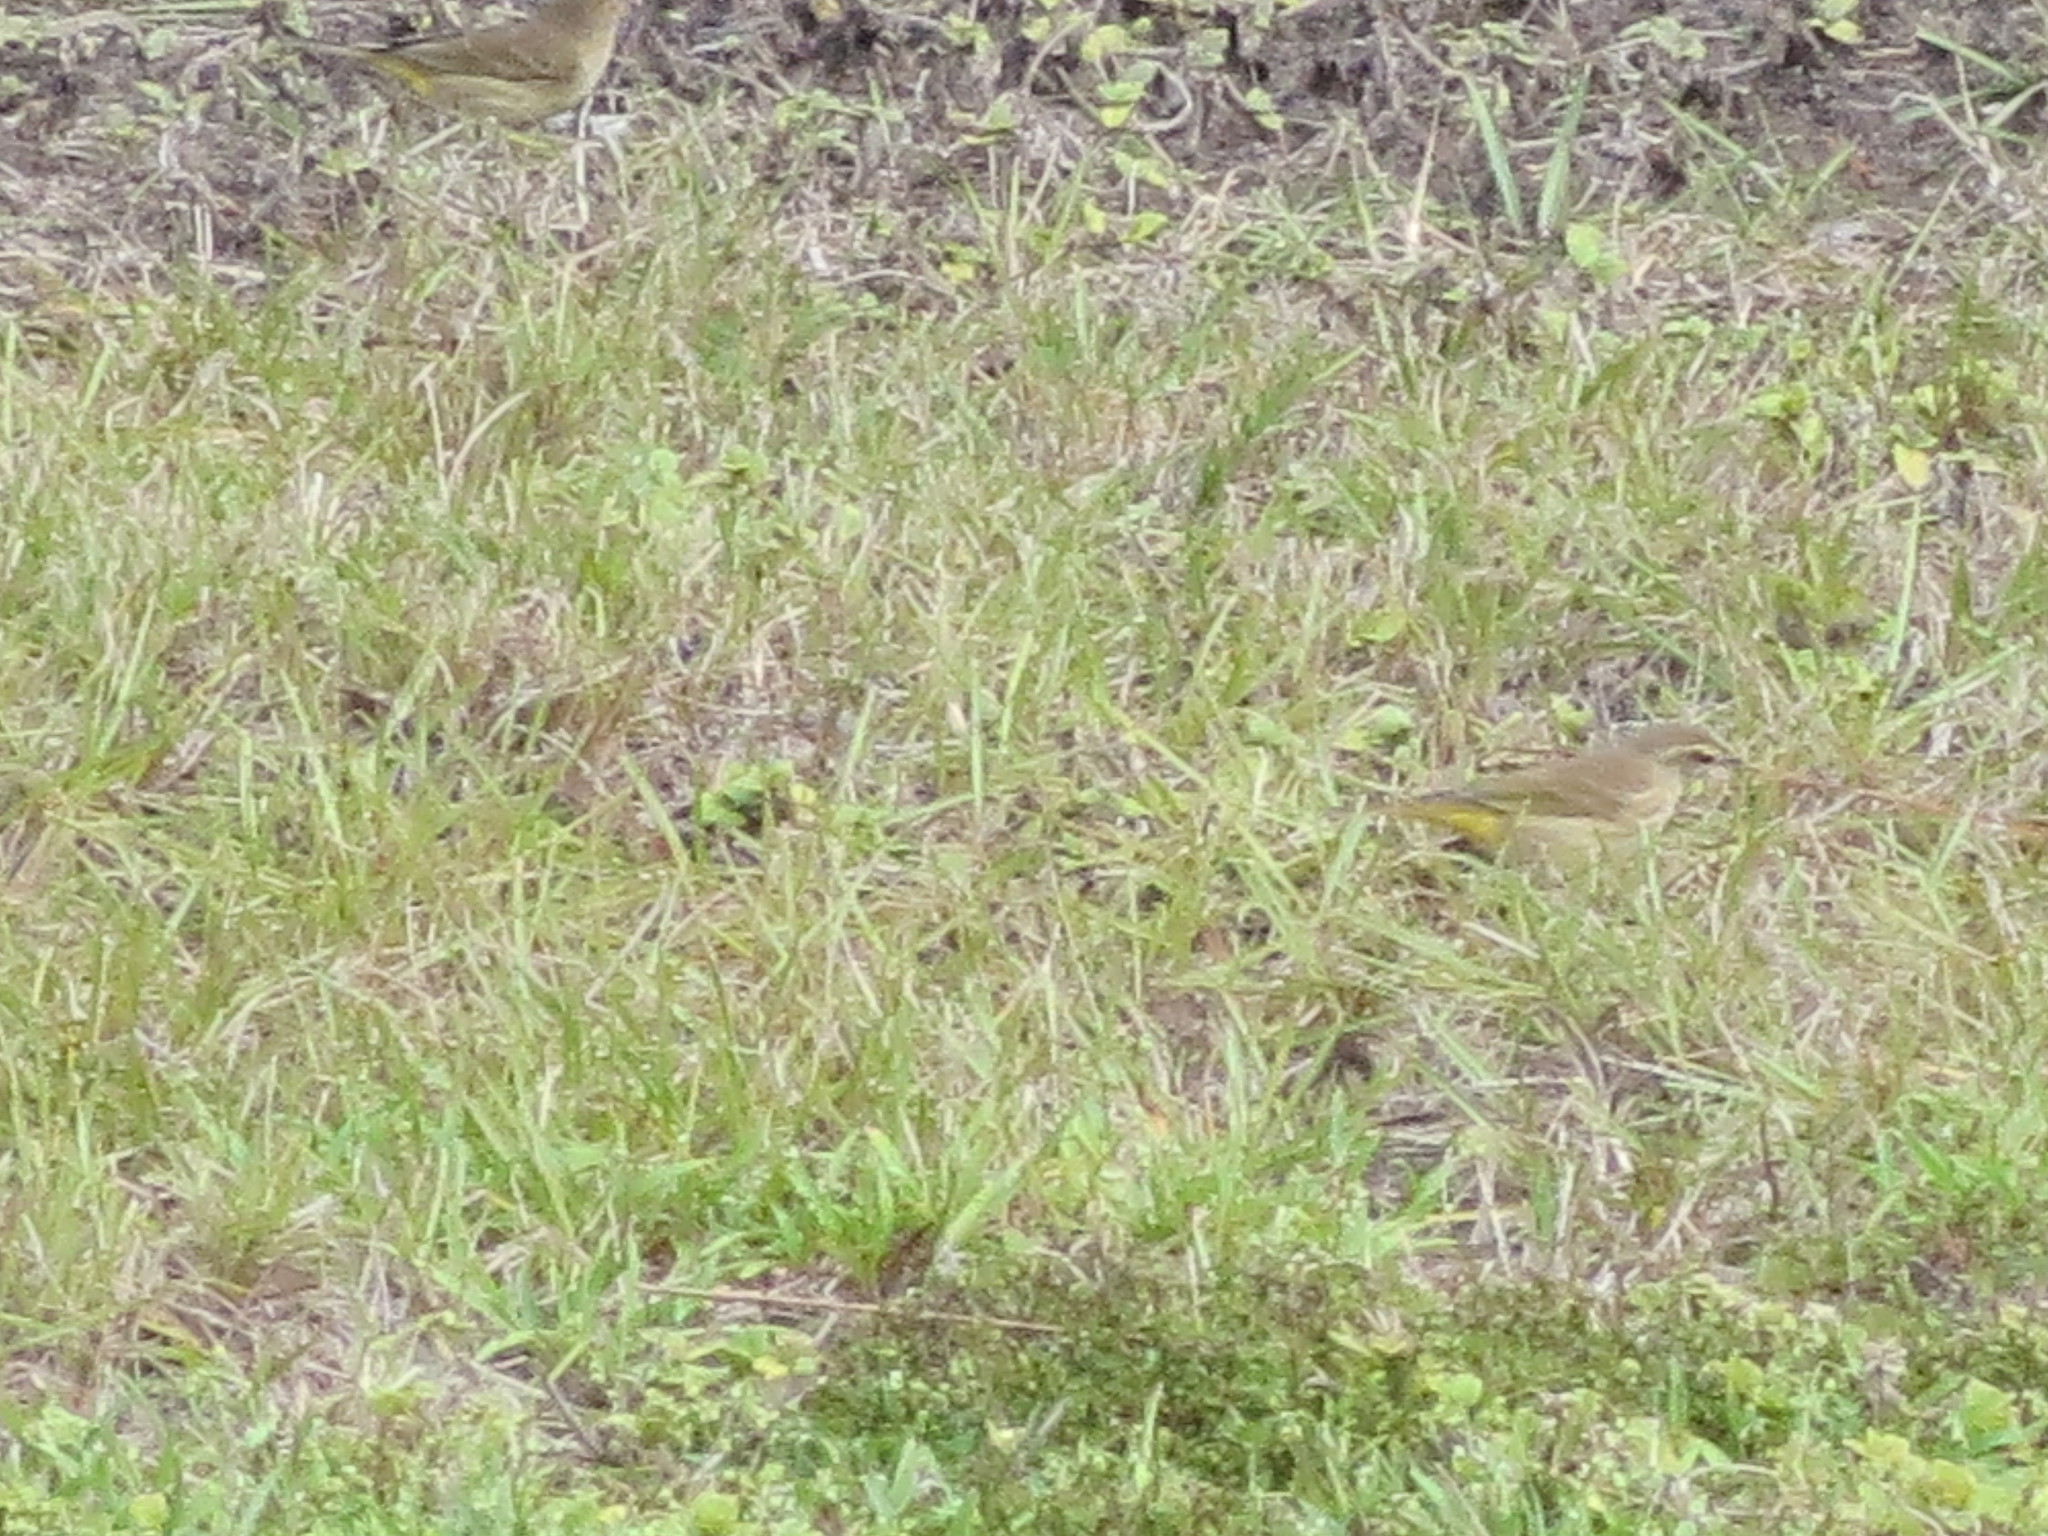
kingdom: Animalia
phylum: Chordata
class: Aves
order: Passeriformes
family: Parulidae
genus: Setophaga
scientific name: Setophaga palmarum
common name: Palm warbler
